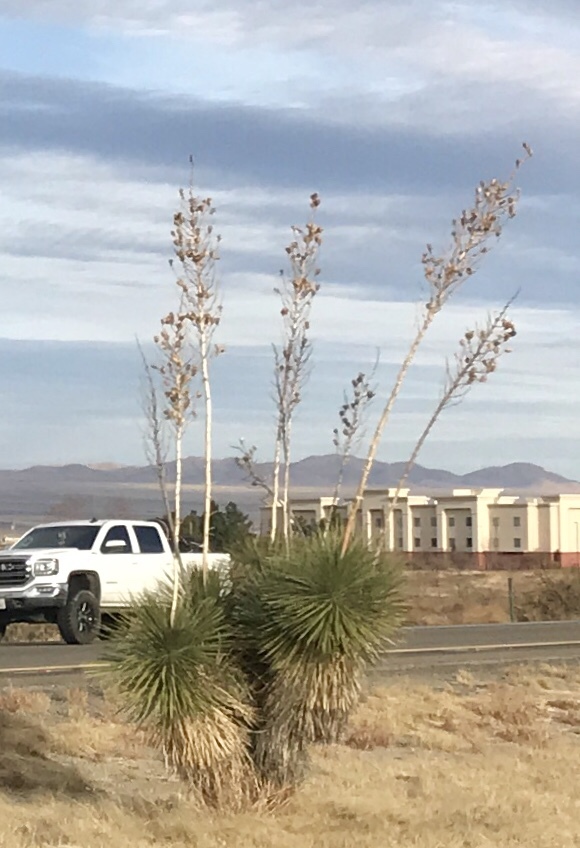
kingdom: Plantae
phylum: Tracheophyta
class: Liliopsida
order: Asparagales
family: Asparagaceae
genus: Yucca
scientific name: Yucca elata
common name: Palmella
